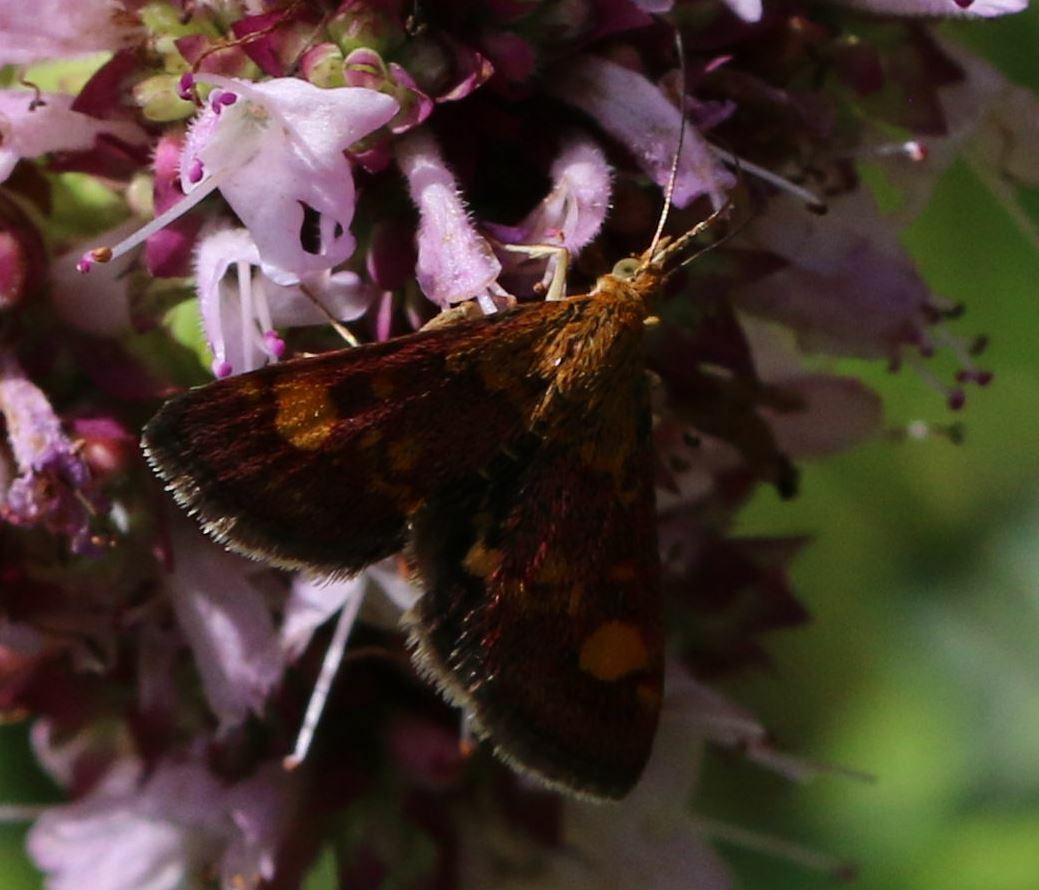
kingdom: Animalia
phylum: Arthropoda
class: Insecta
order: Lepidoptera
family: Crambidae
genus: Pyrausta
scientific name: Pyrausta aurata
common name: Small purple & gold
